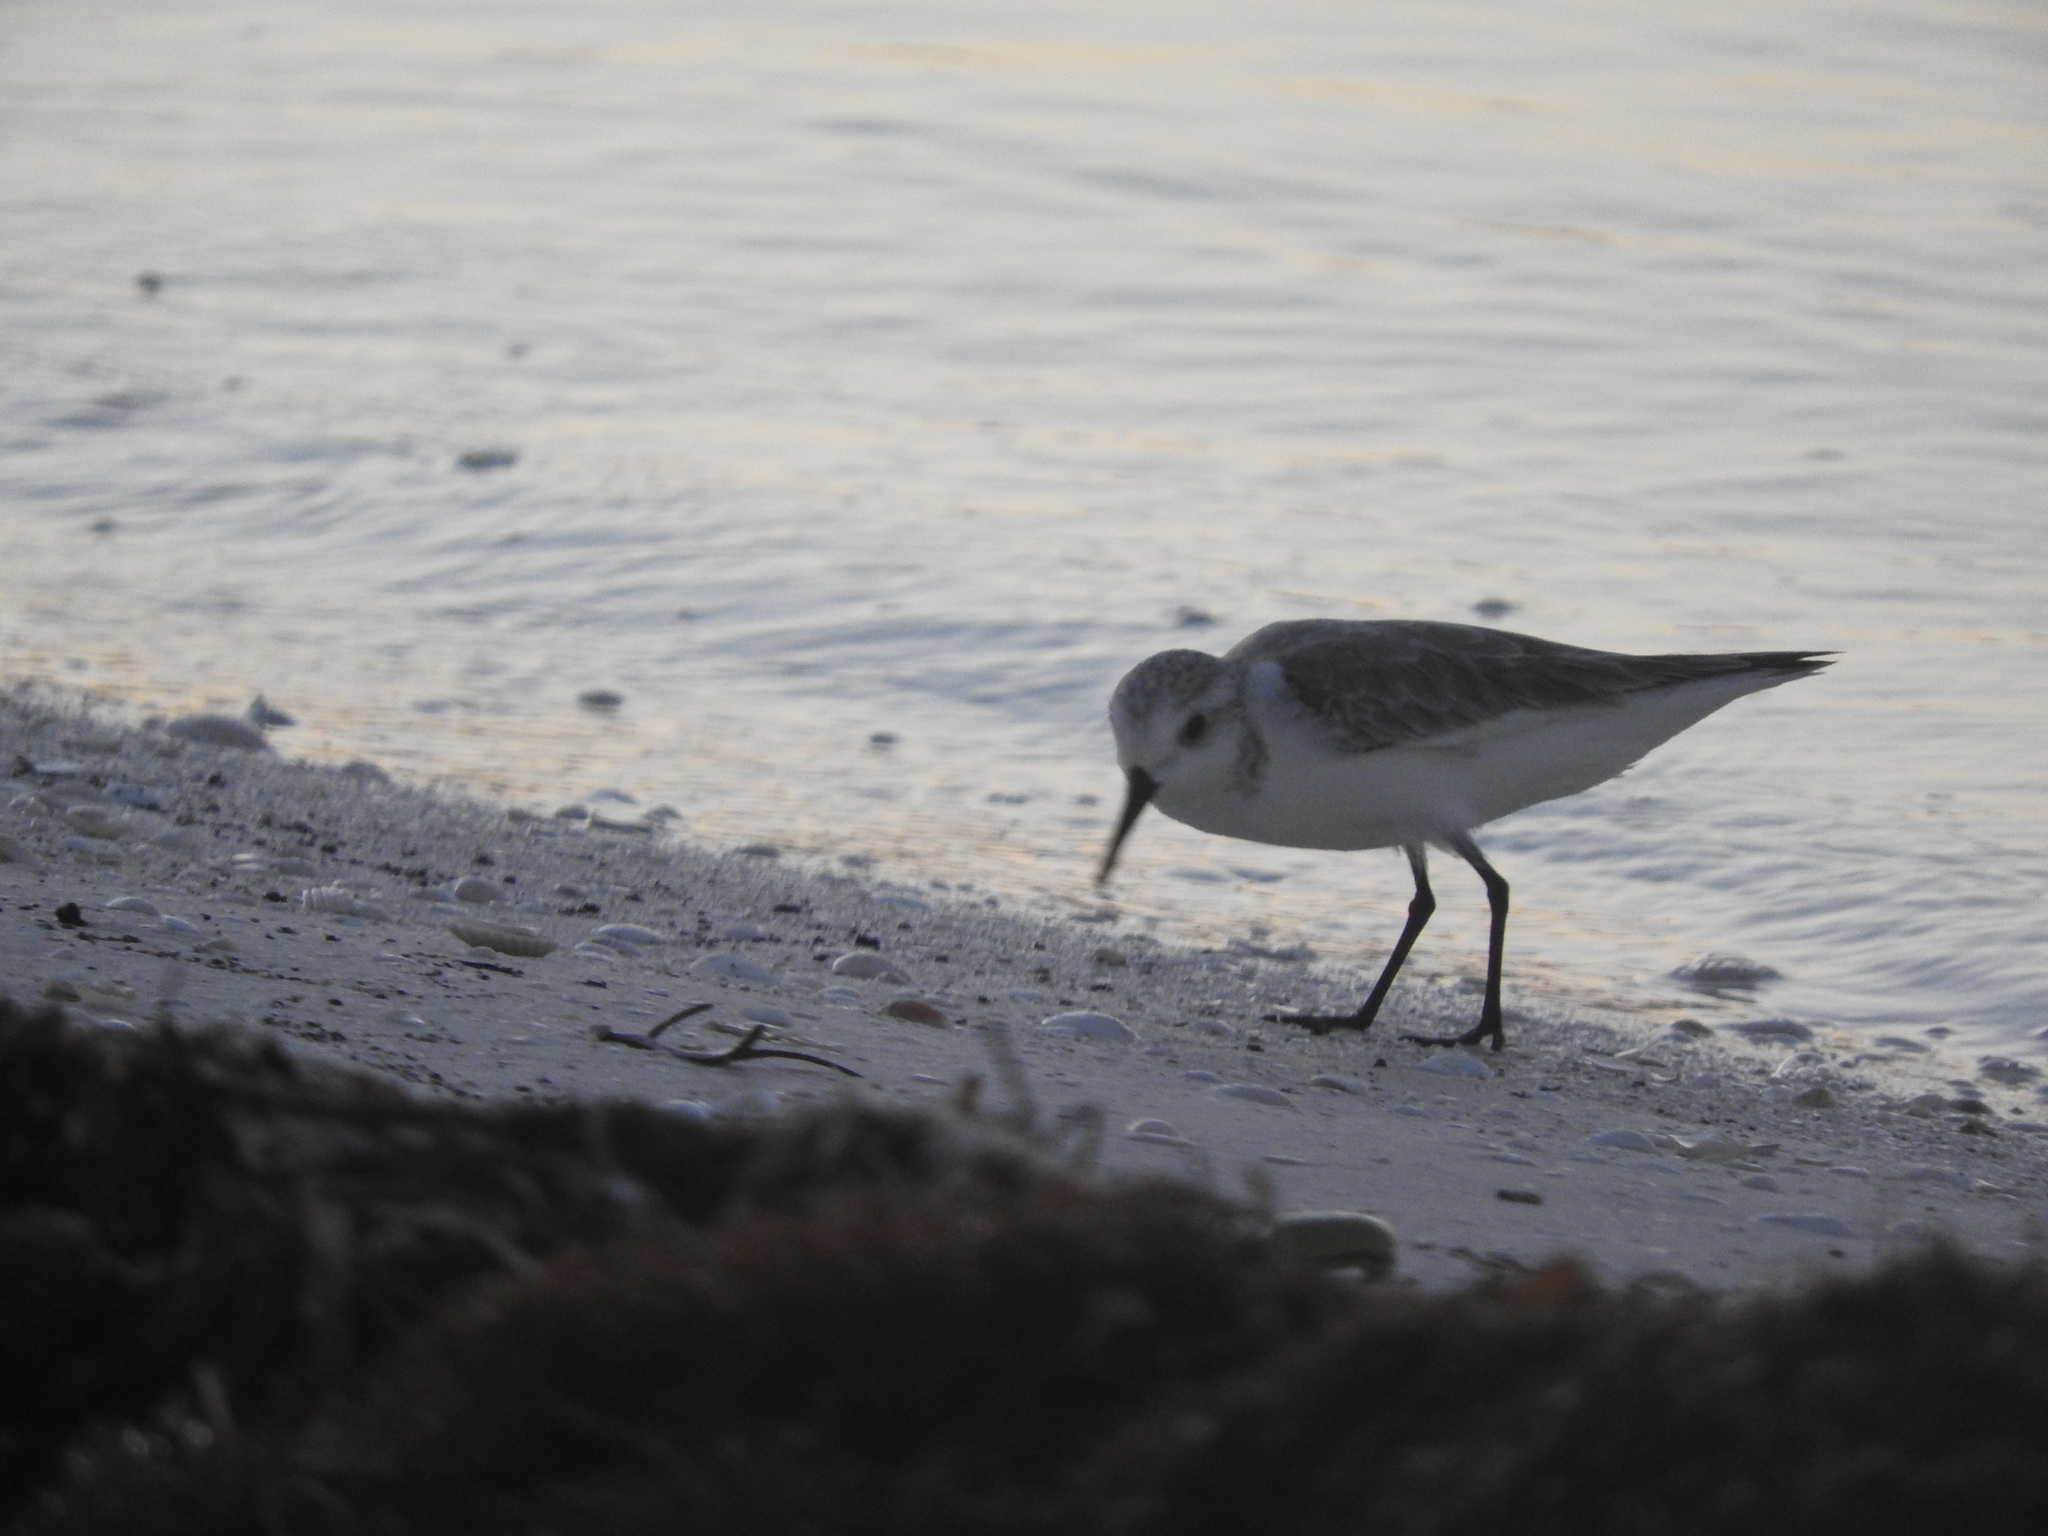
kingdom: Animalia
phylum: Chordata
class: Aves
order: Charadriiformes
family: Scolopacidae
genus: Calidris
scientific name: Calidris alba
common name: Sanderling
